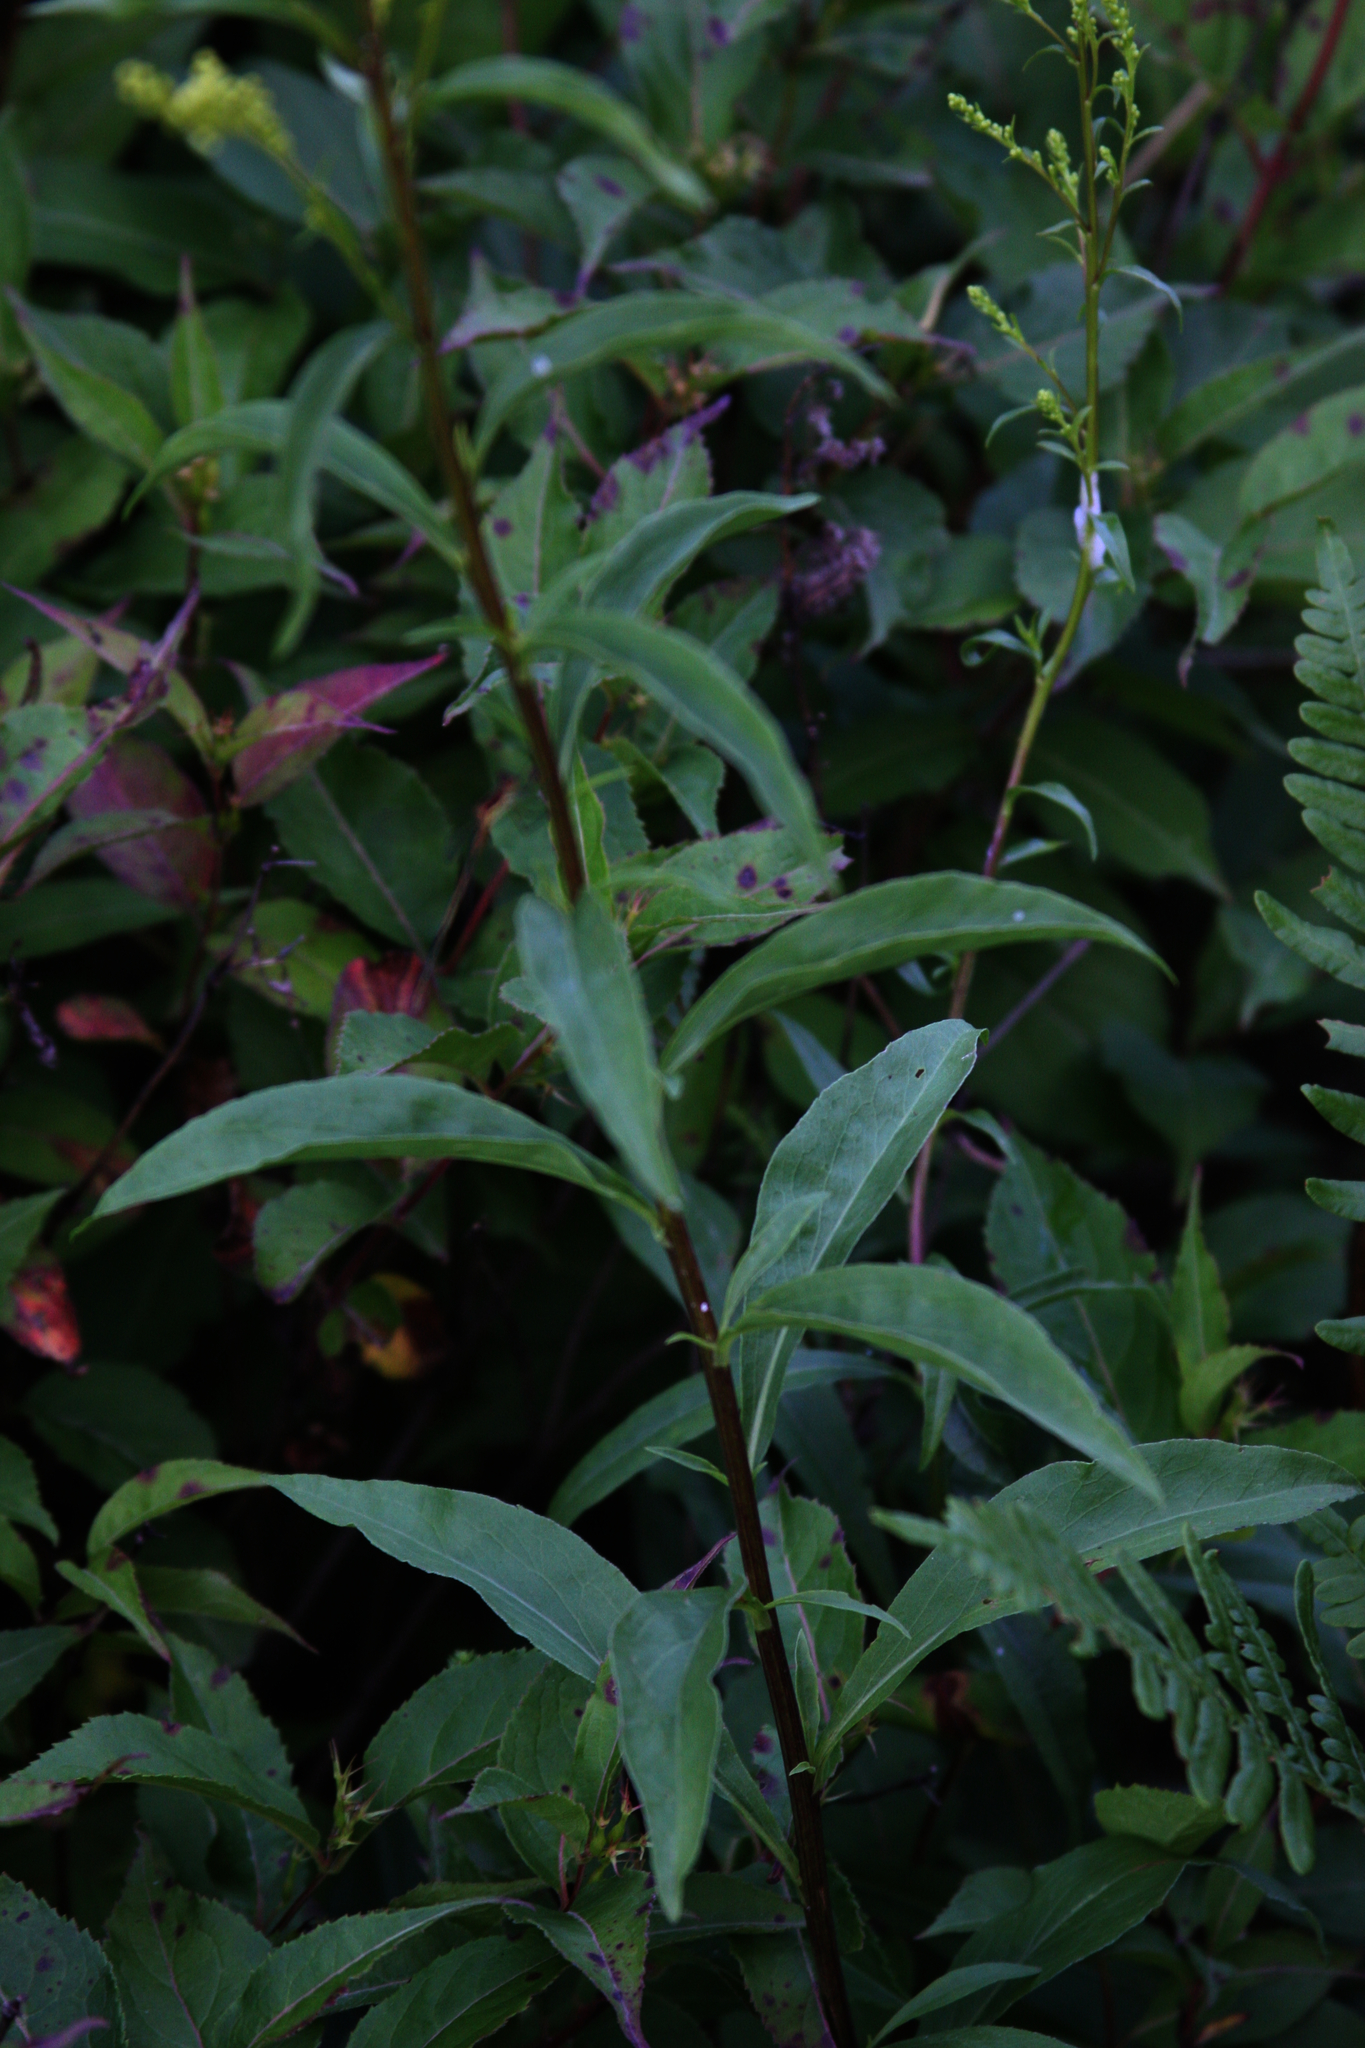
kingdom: Plantae
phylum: Tracheophyta
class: Magnoliopsida
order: Asterales
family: Asteraceae
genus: Solidago
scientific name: Solidago juncea
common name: Early goldenrod
